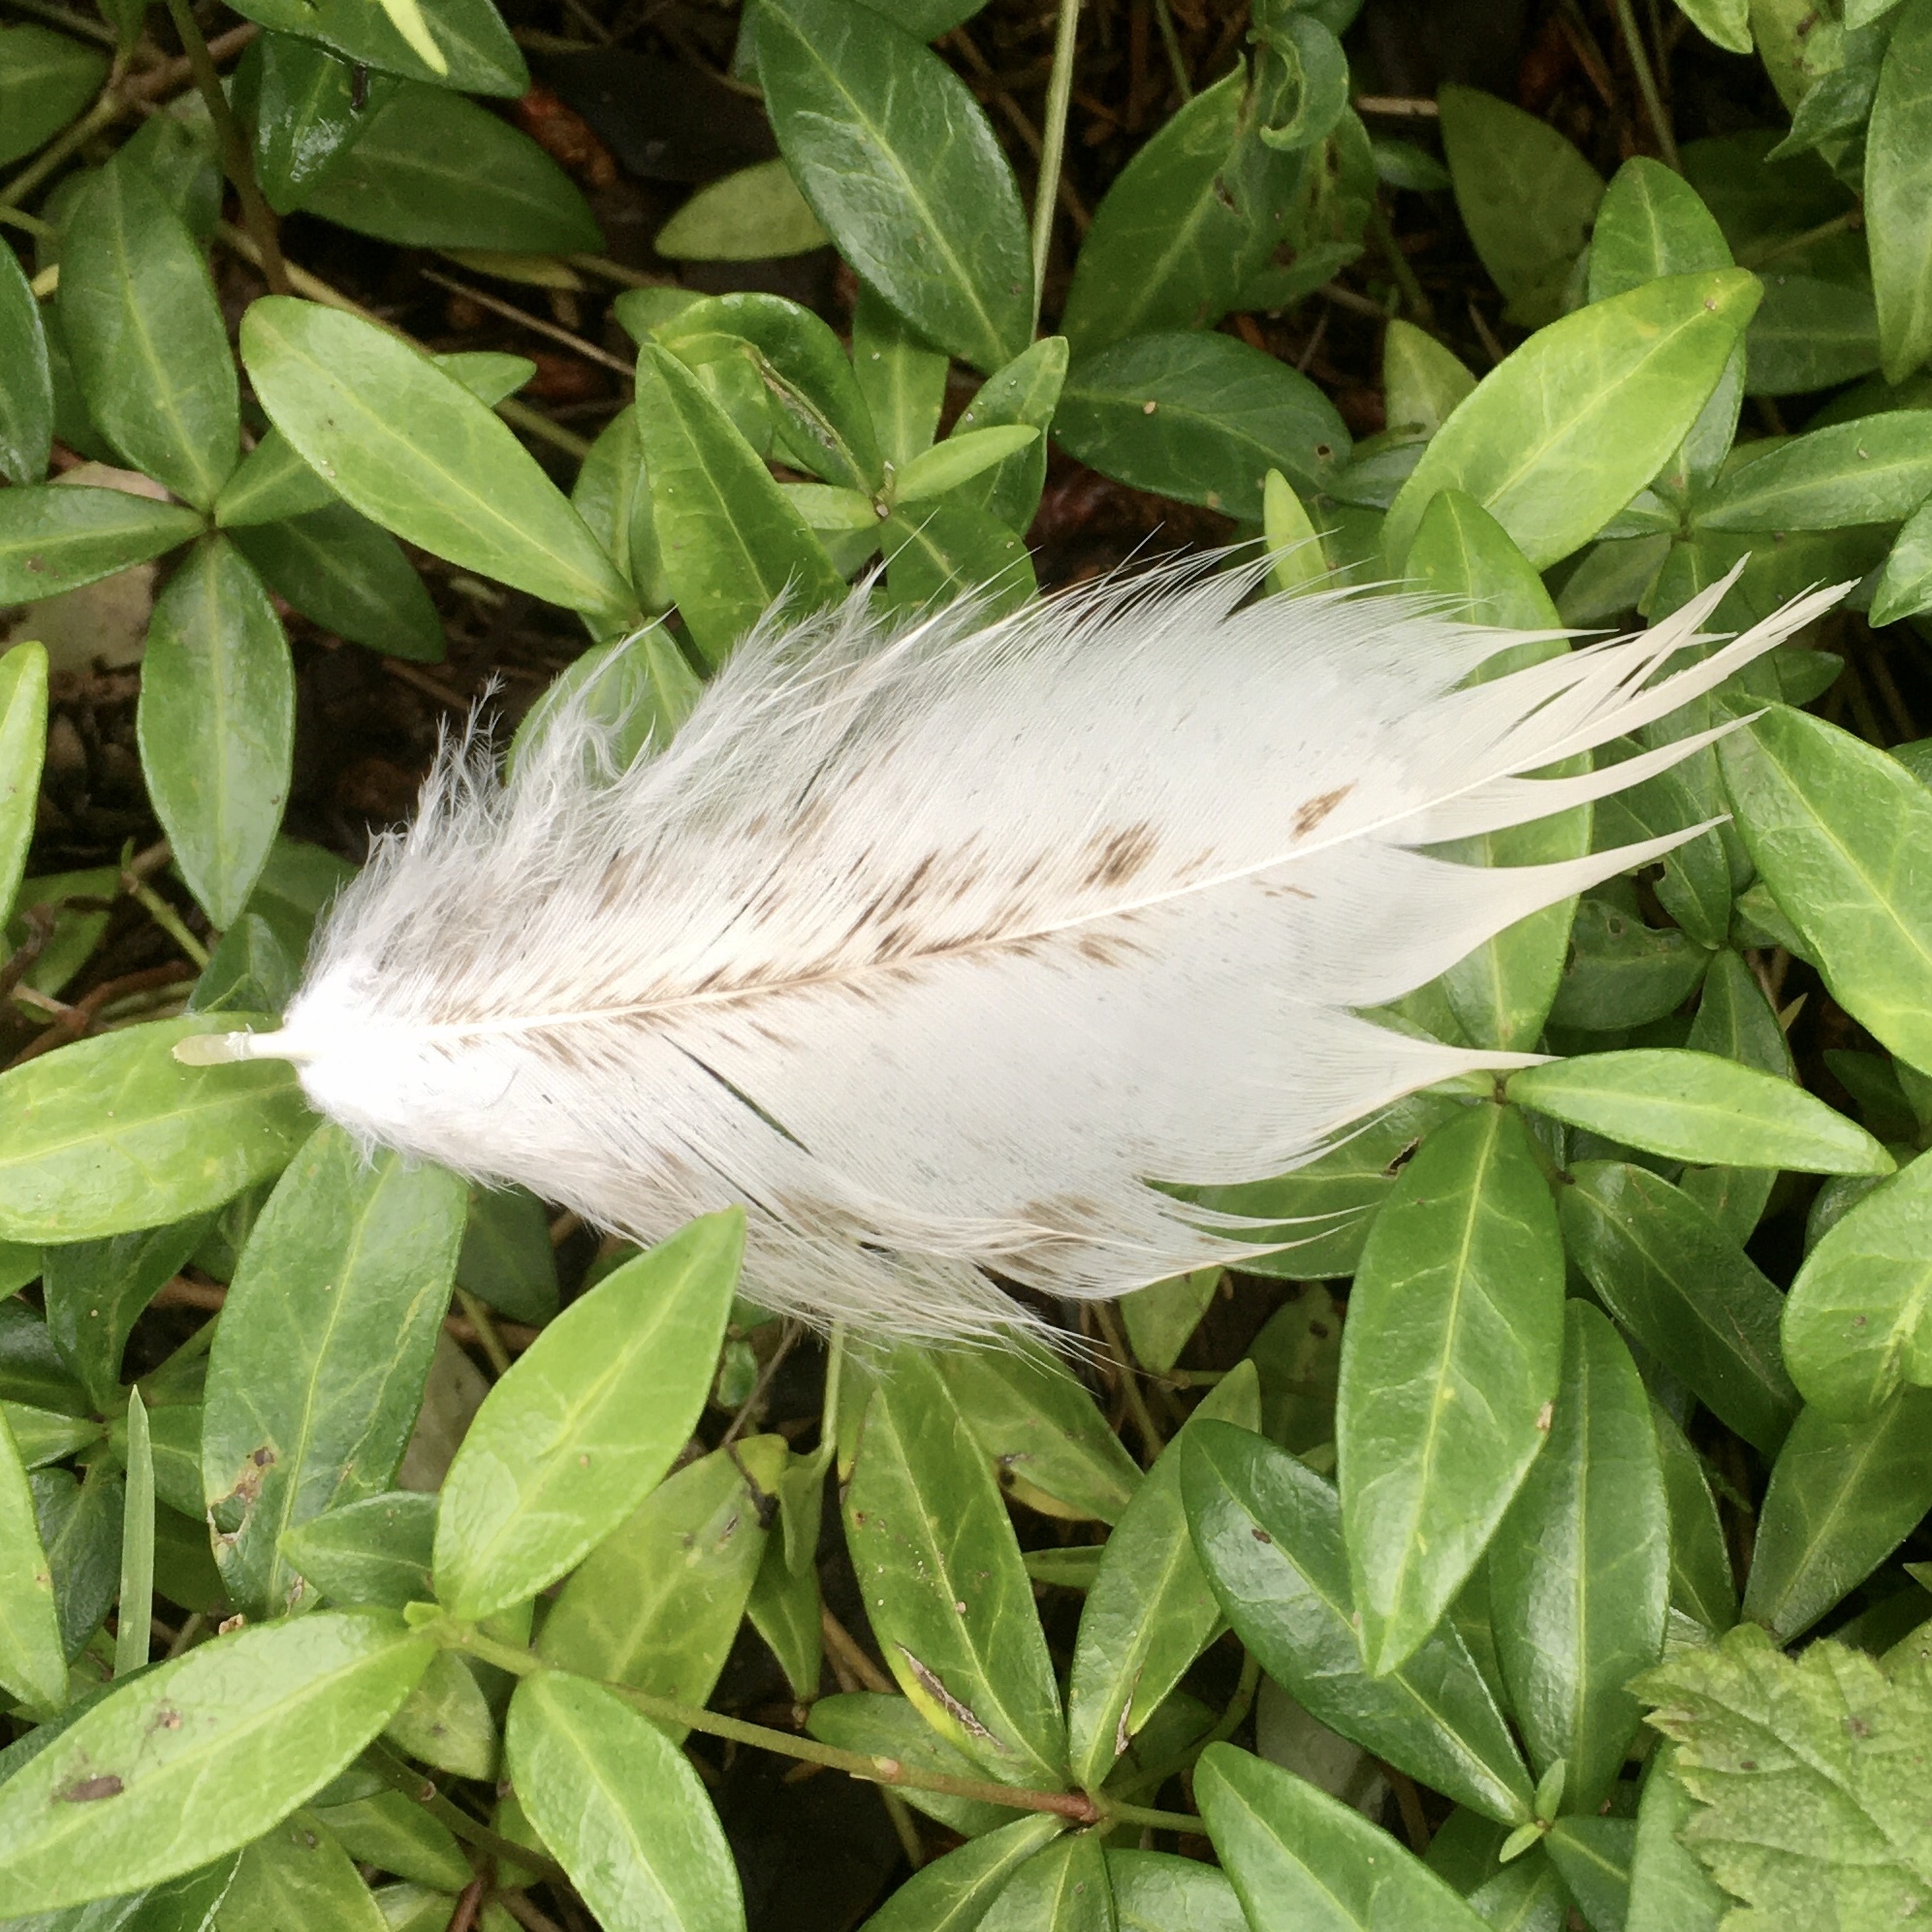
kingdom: Animalia
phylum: Chordata
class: Aves
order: Accipitriformes
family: Accipitridae
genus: Haliaeetus
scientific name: Haliaeetus leucocephalus
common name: Bald eagle
